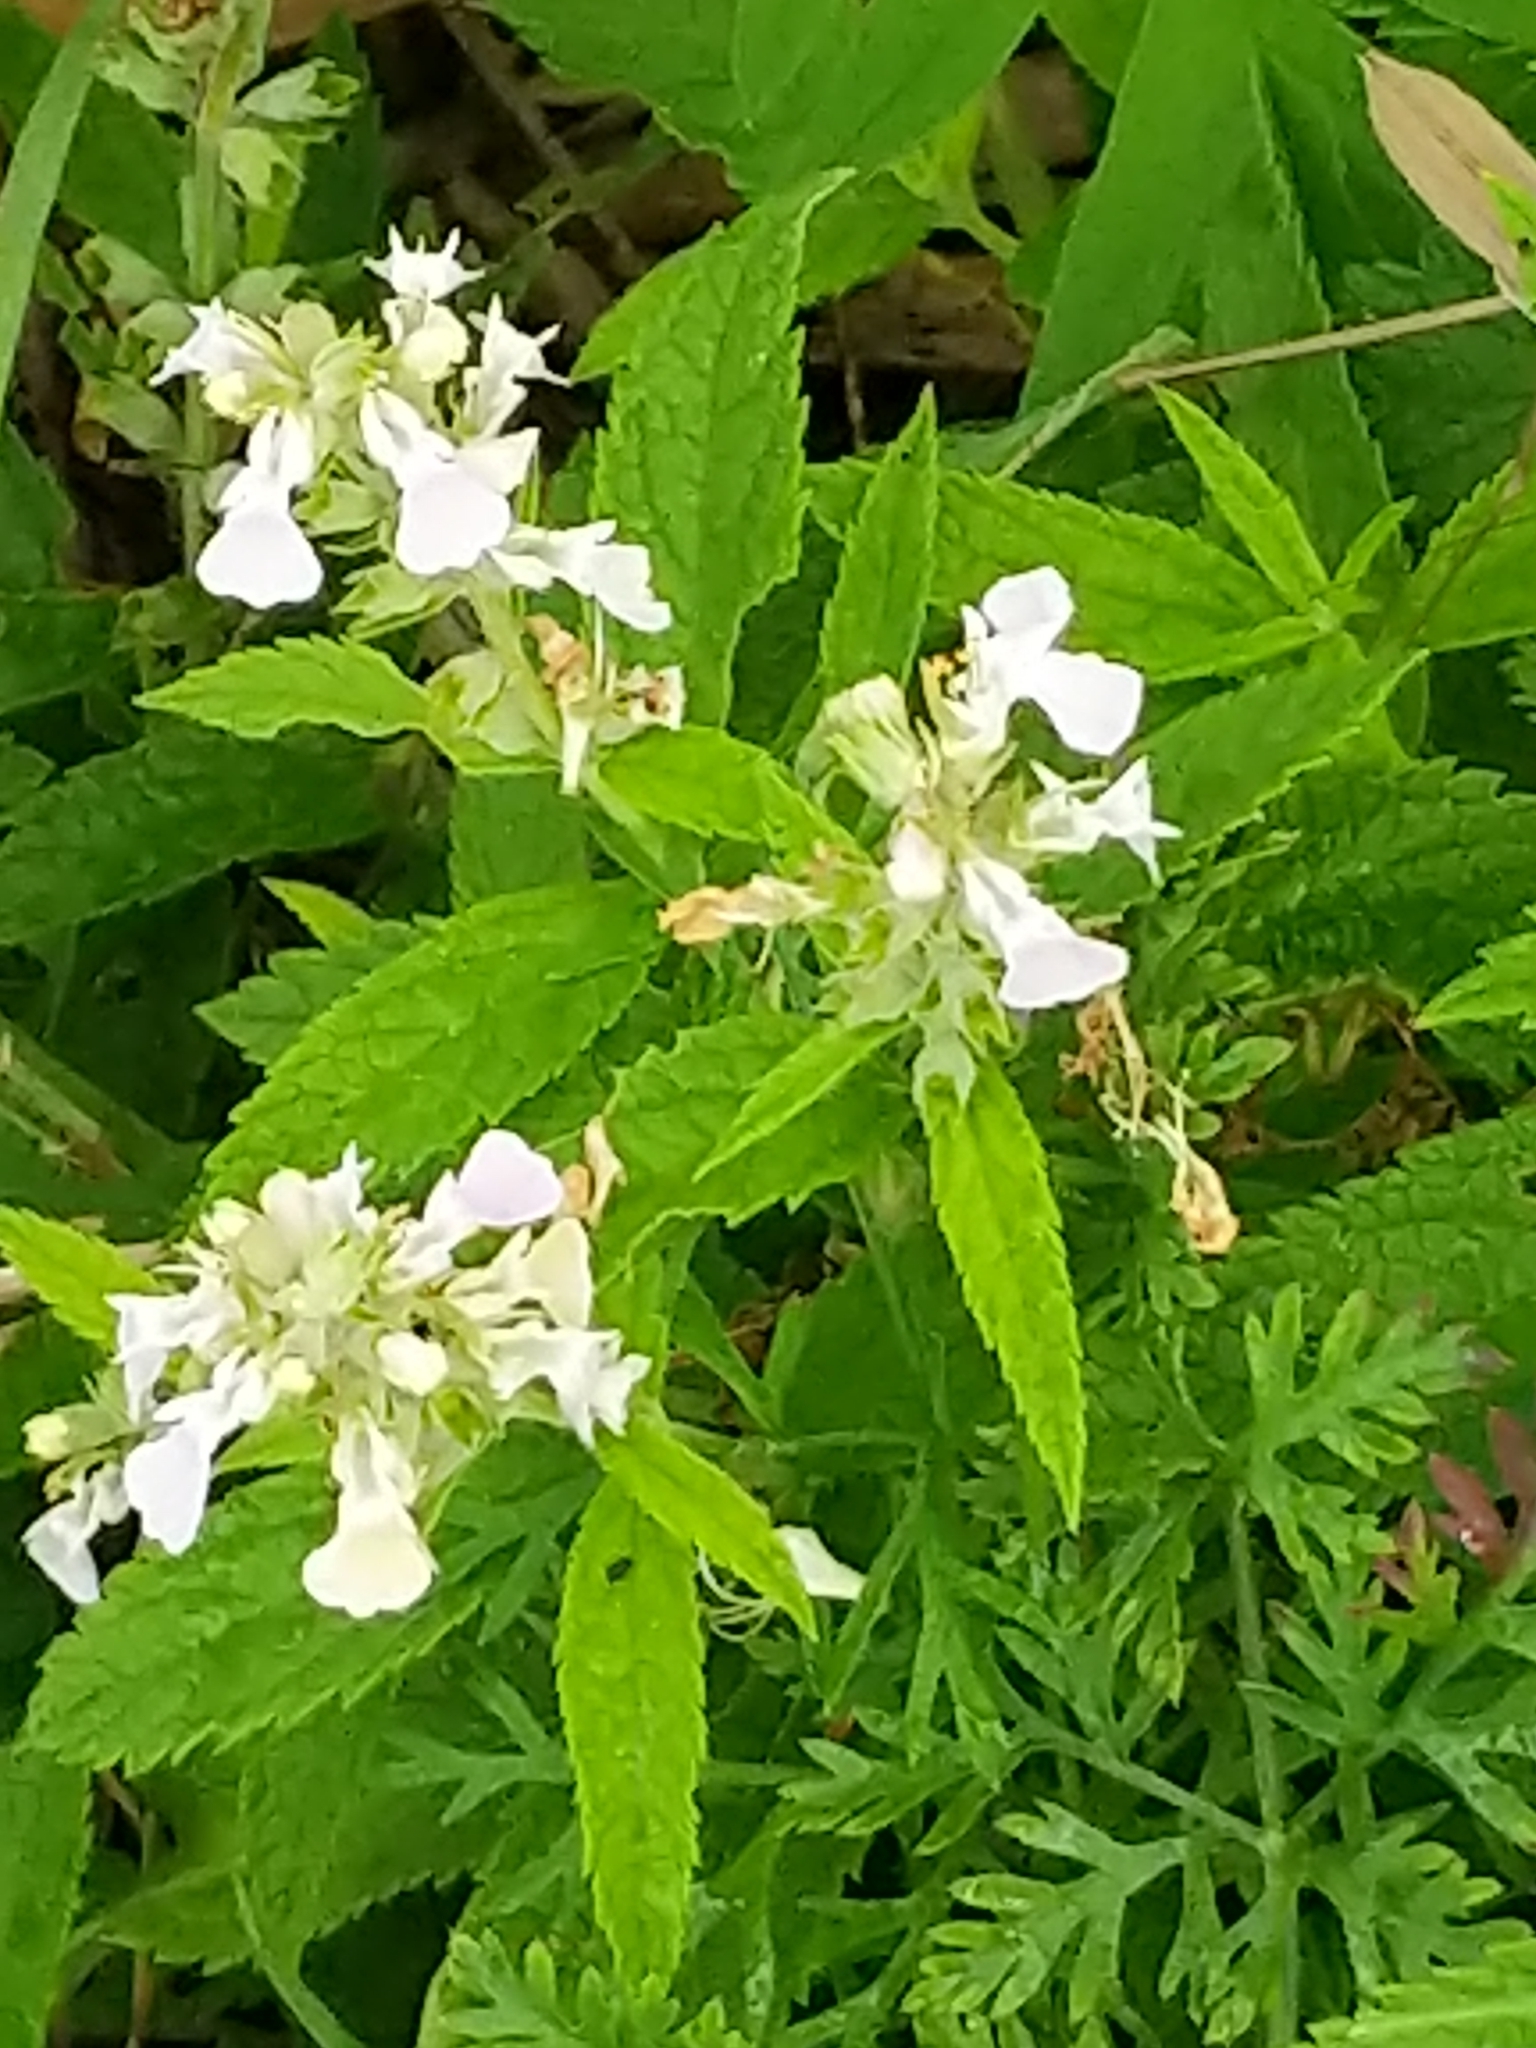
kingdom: Plantae
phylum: Tracheophyta
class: Magnoliopsida
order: Lamiales
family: Lamiaceae
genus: Teucrium
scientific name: Teucrium canadense
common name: American germander
